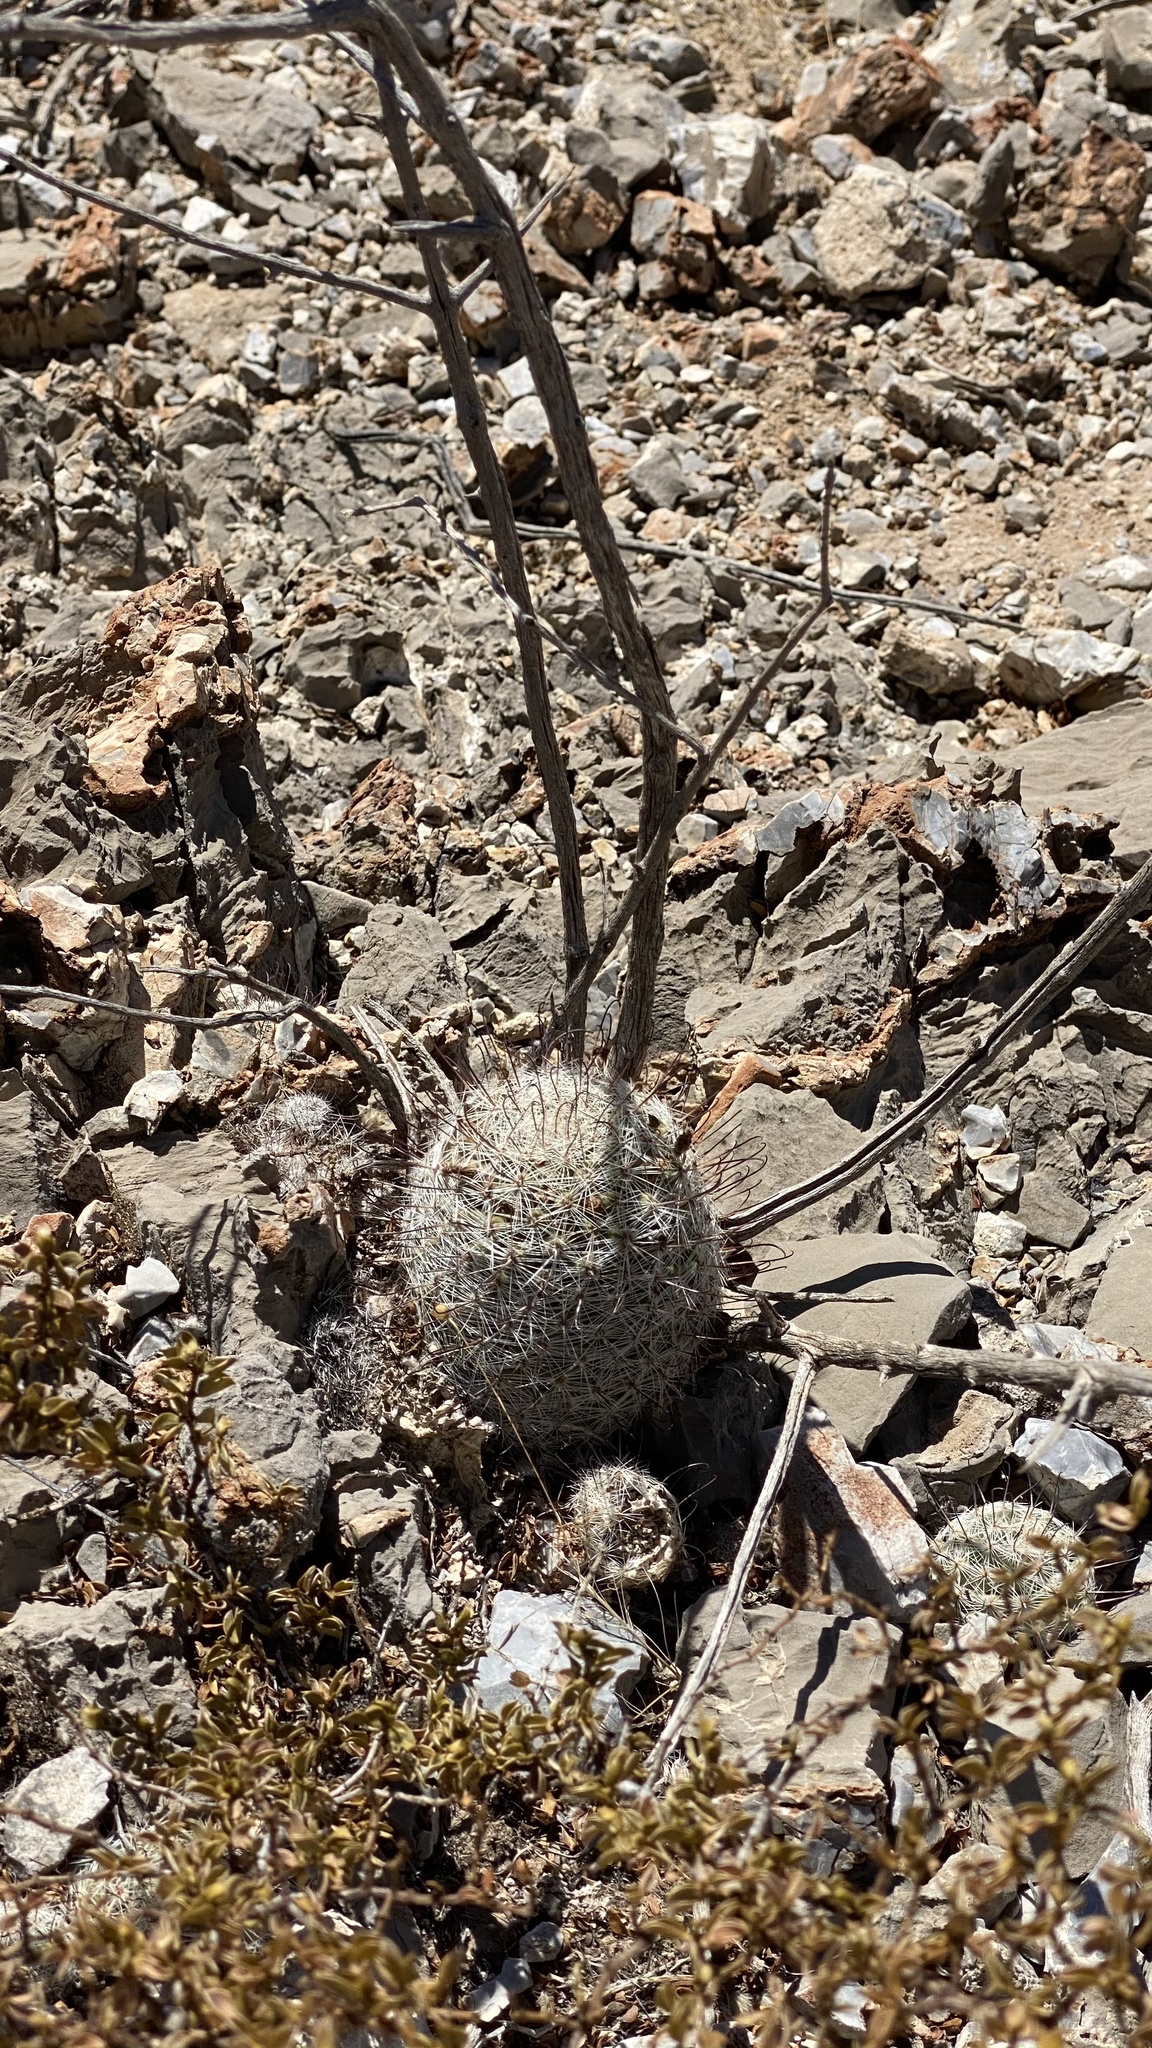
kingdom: Plantae
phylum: Tracheophyta
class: Magnoliopsida
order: Caryophyllales
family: Cactaceae
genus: Cochemiea
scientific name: Cochemiea grahamii
